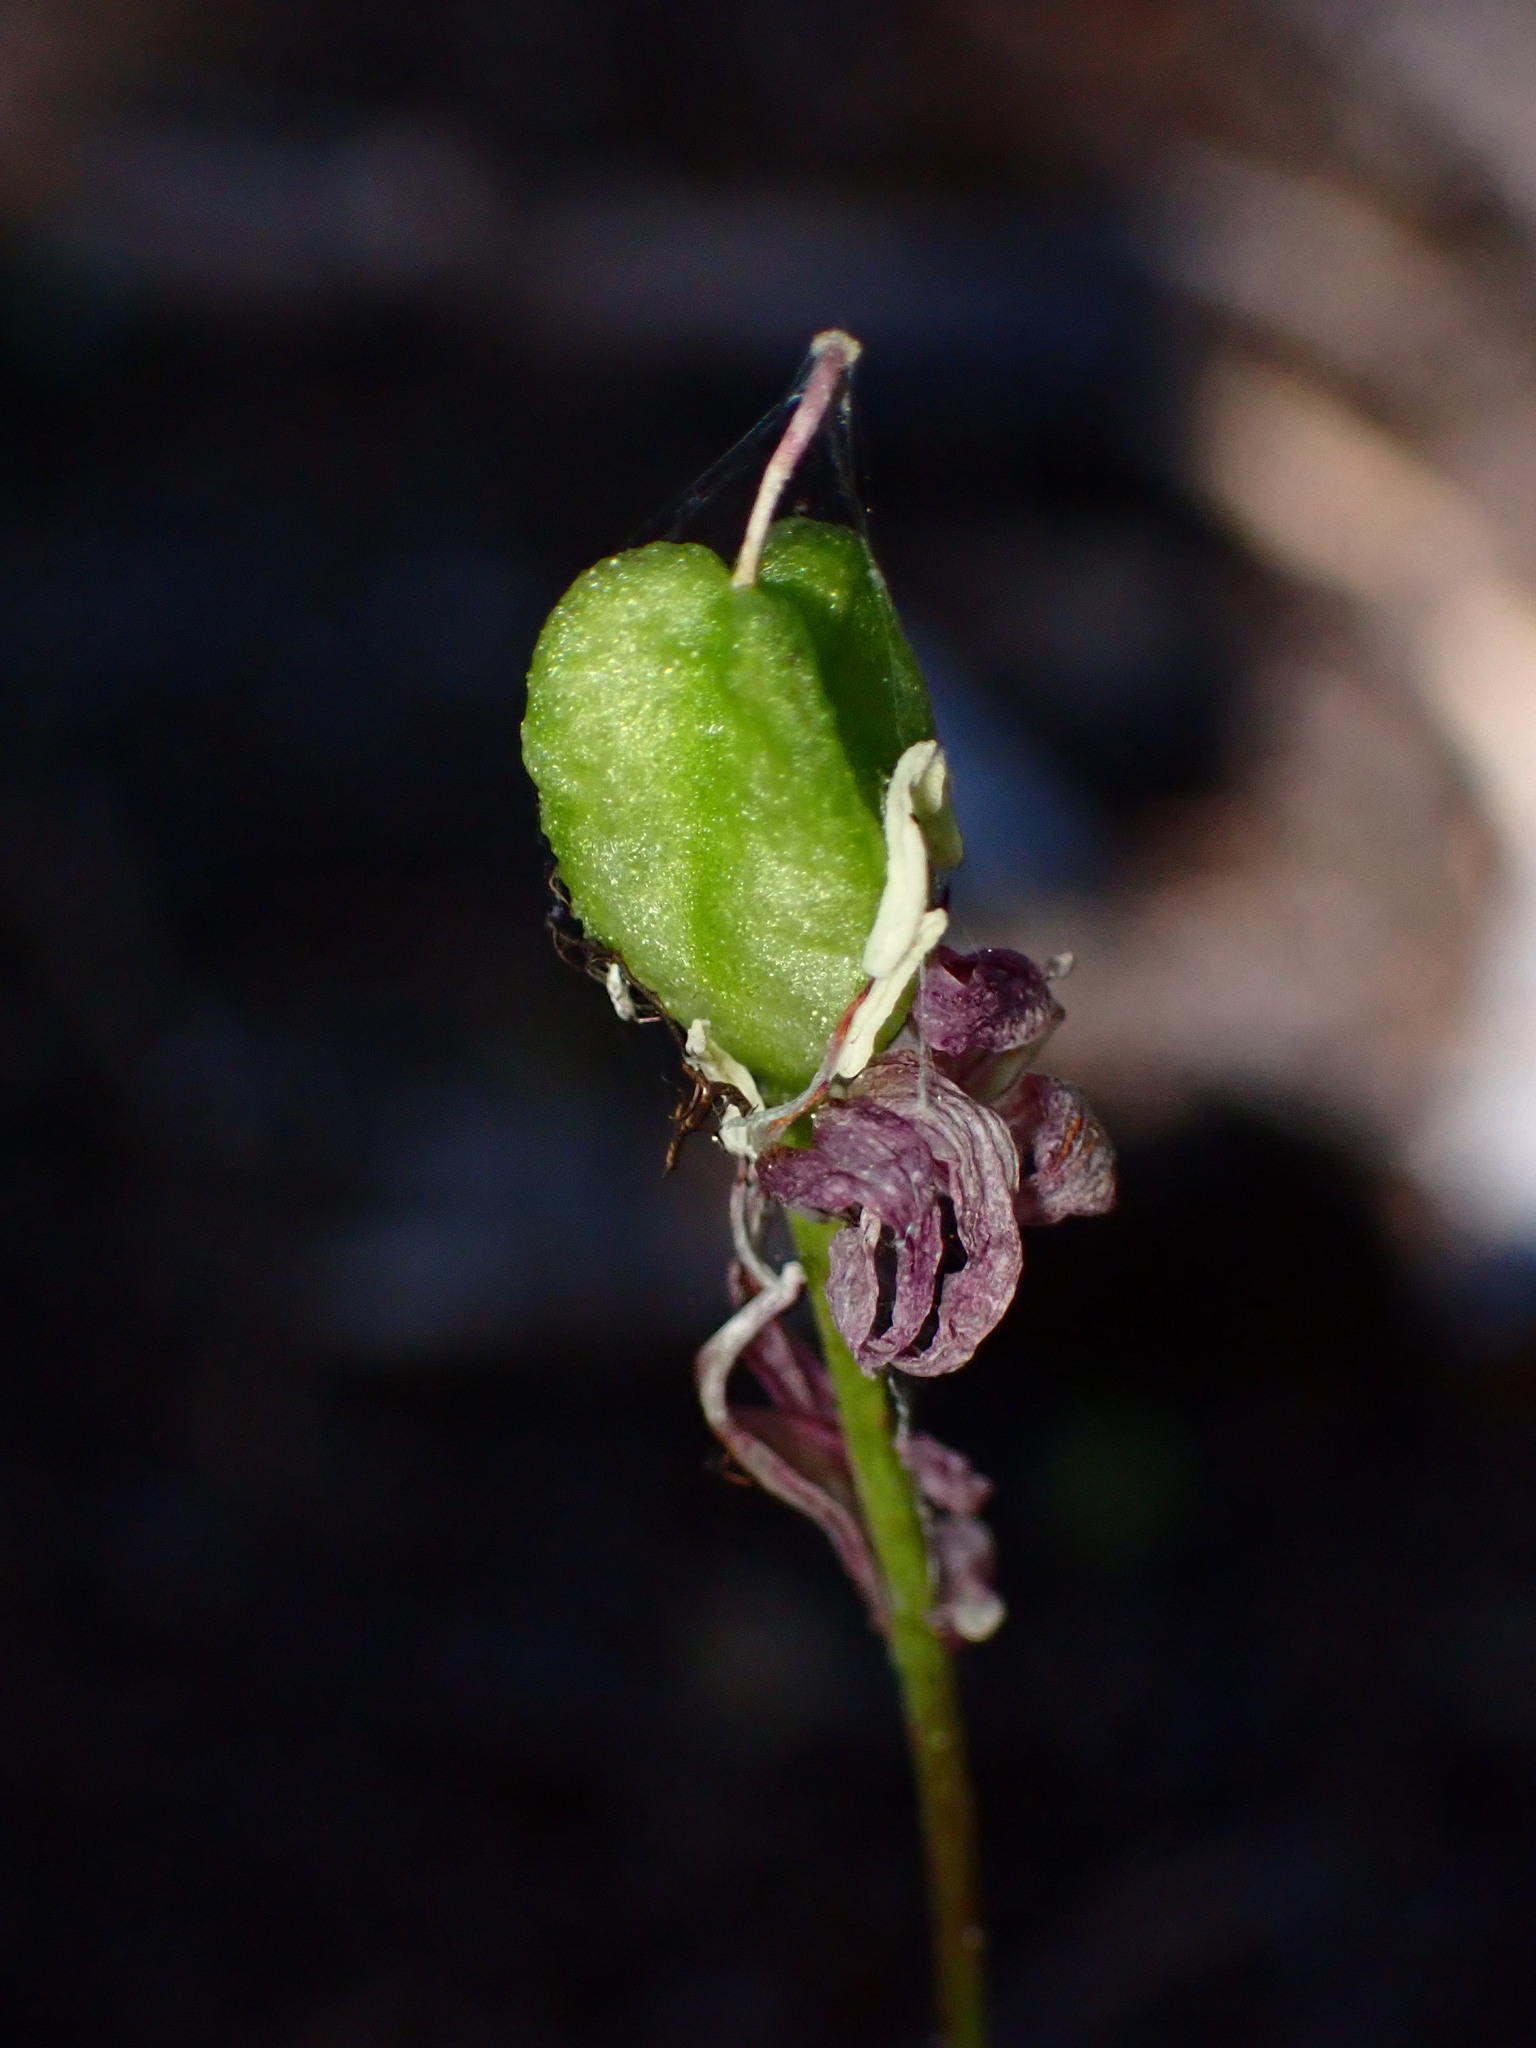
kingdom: Plantae
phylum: Tracheophyta
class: Liliopsida
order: Liliales
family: Liliaceae
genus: Erythronium
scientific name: Erythronium purpurascens
